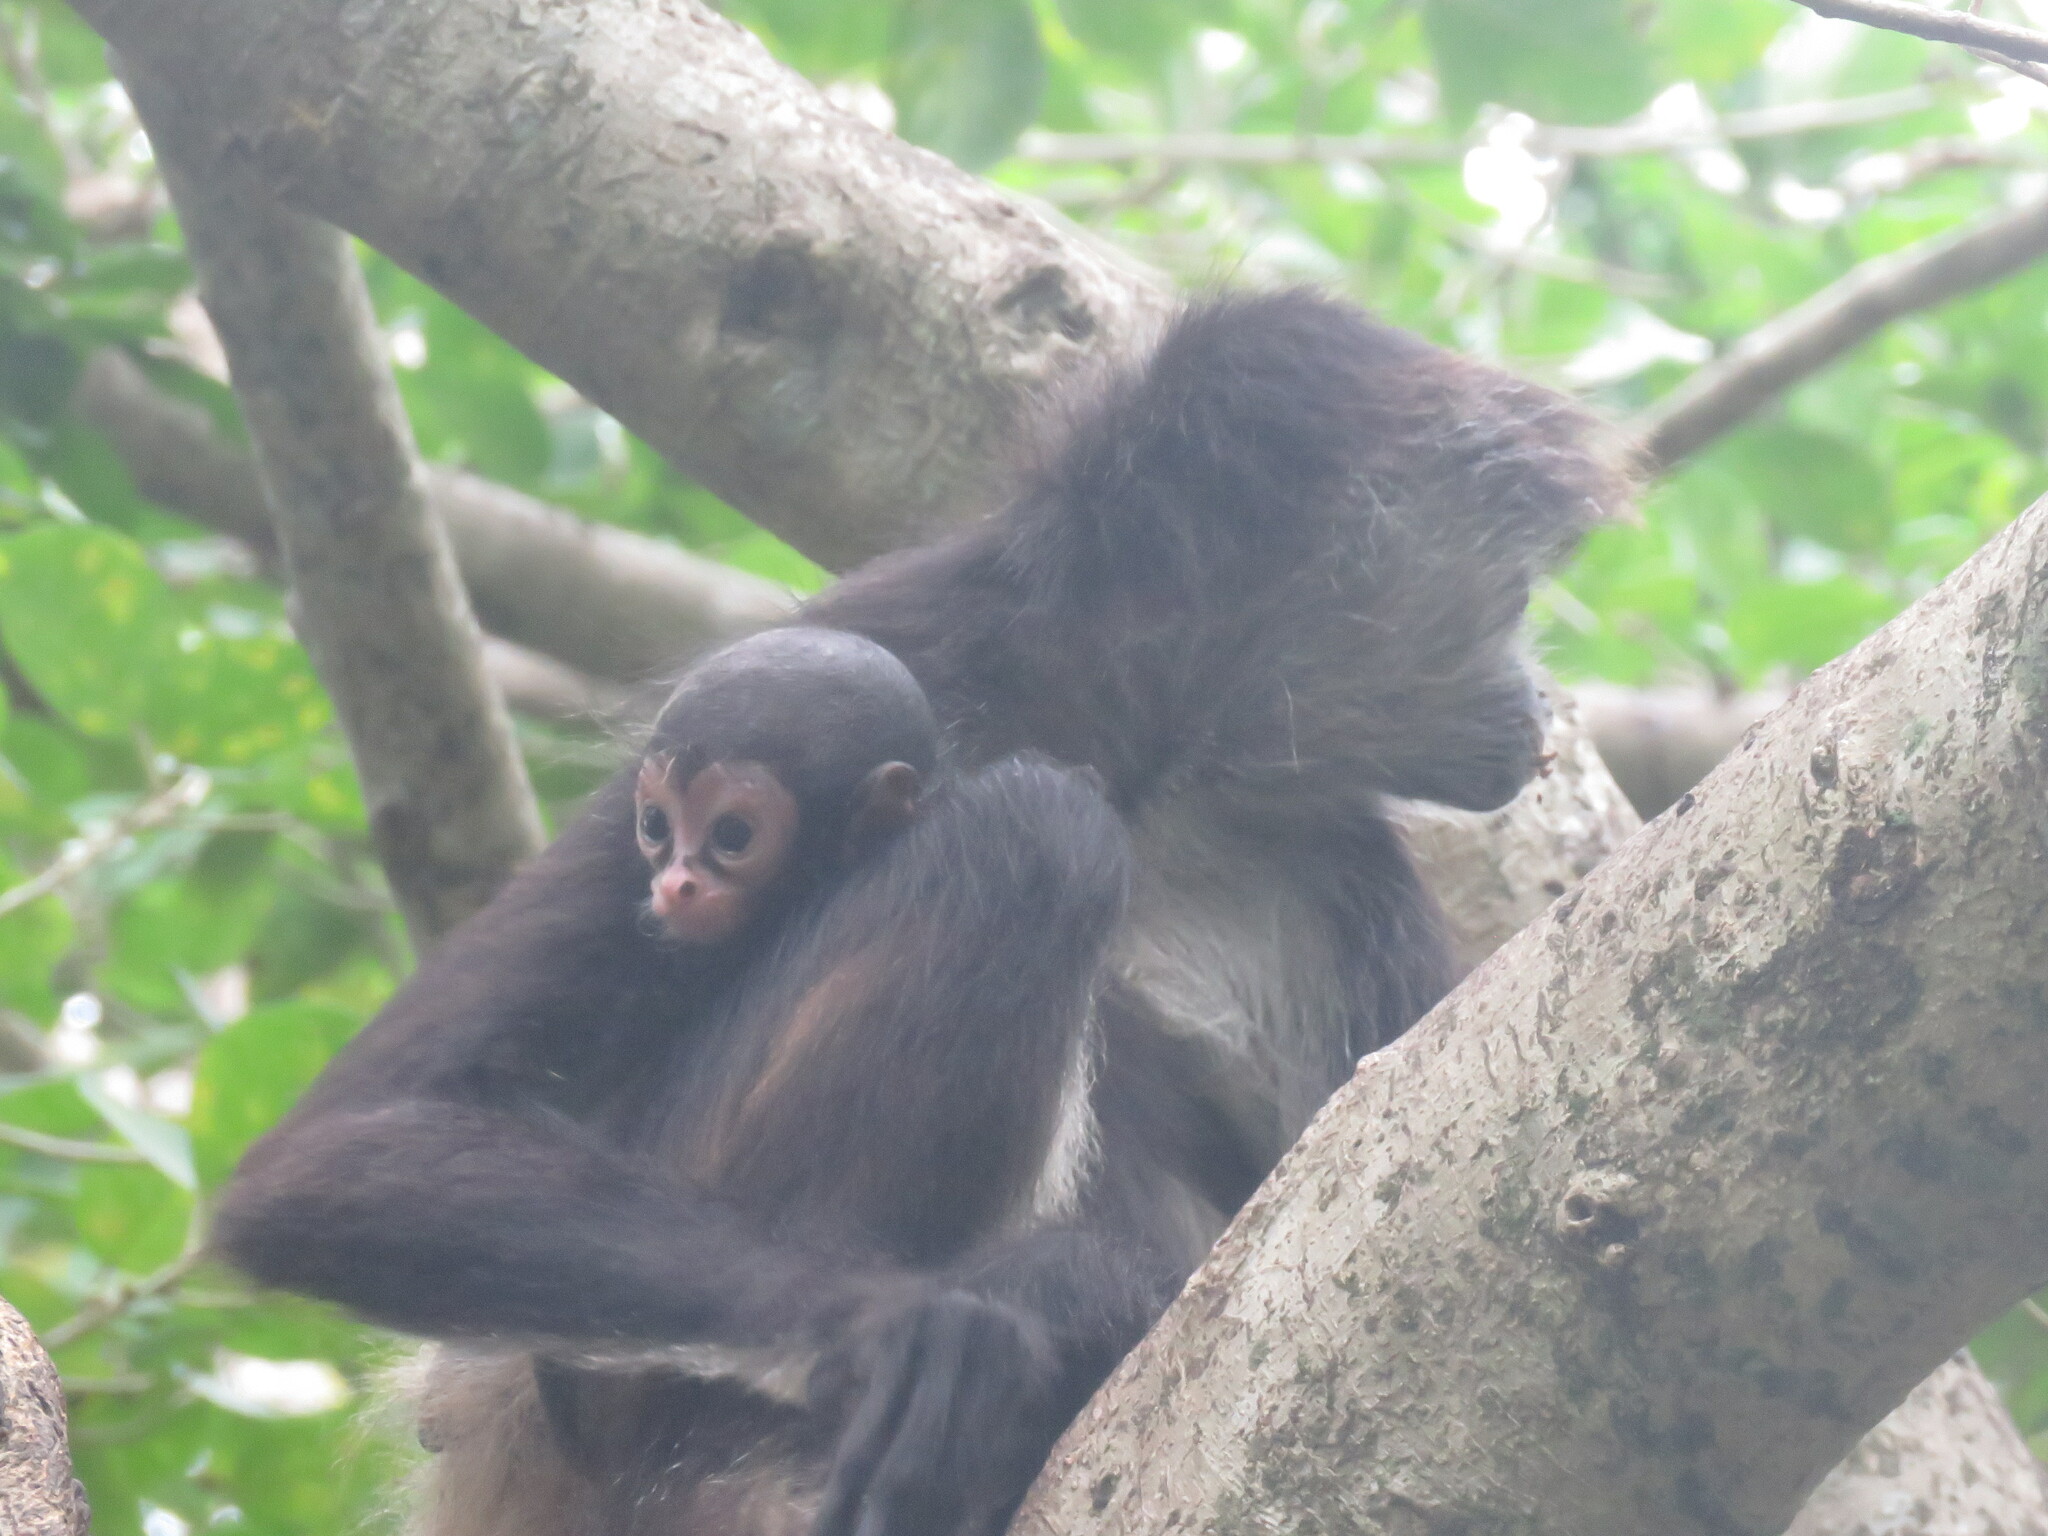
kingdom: Animalia
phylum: Chordata
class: Mammalia
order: Primates
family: Atelidae
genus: Ateles
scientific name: Ateles geoffroyi
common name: Black-handed spider monkey
